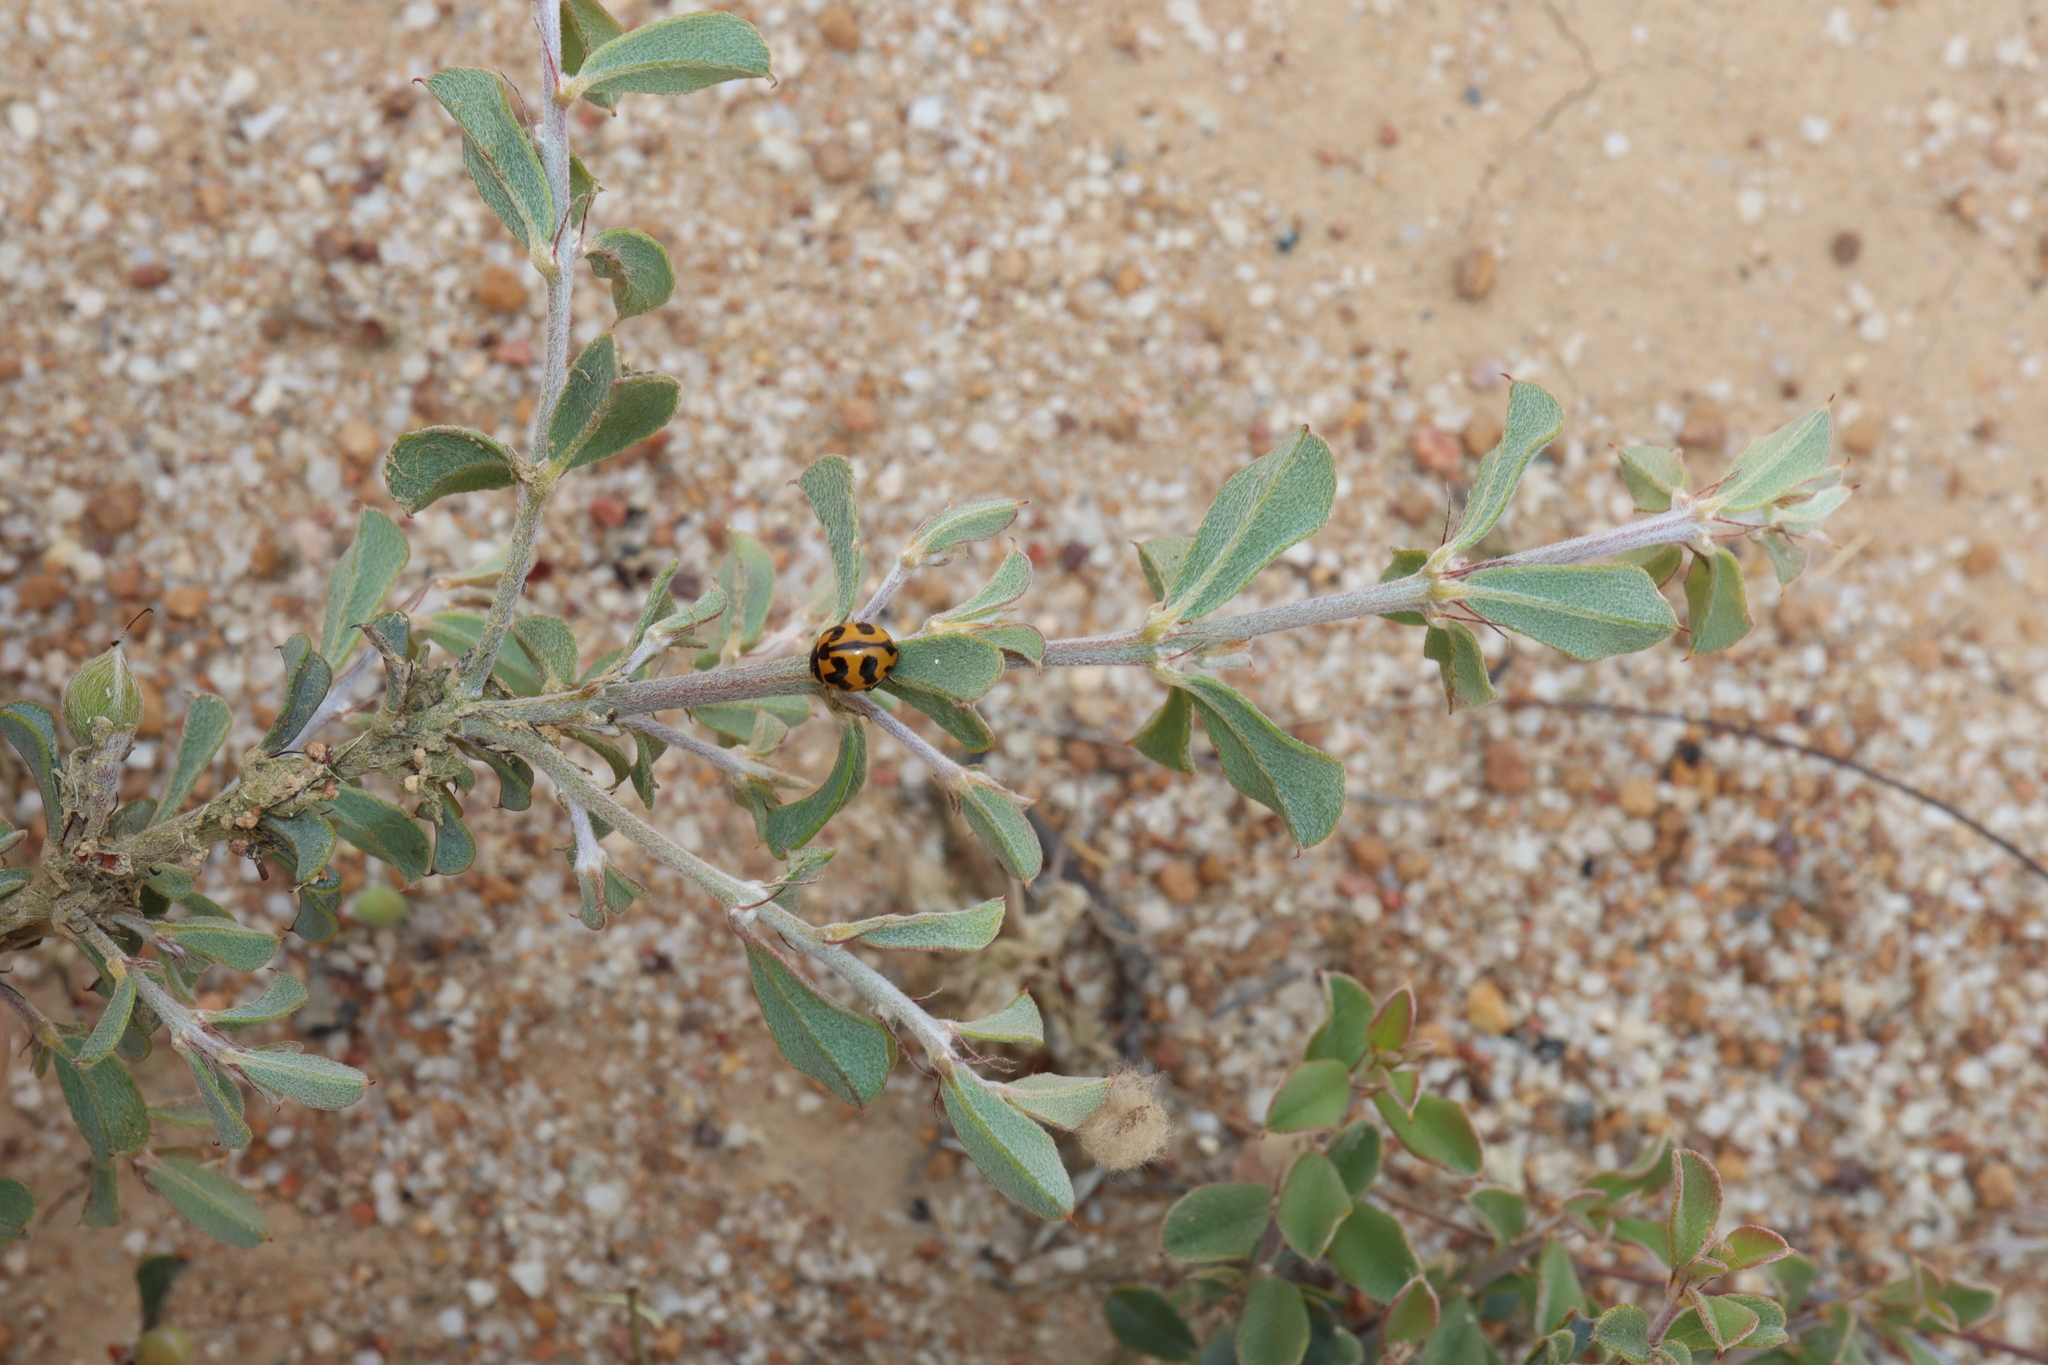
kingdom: Animalia
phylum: Arthropoda
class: Insecta
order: Coleoptera
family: Coccinellidae
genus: Coccinella
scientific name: Coccinella transversalis
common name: Transverse lady beetle
